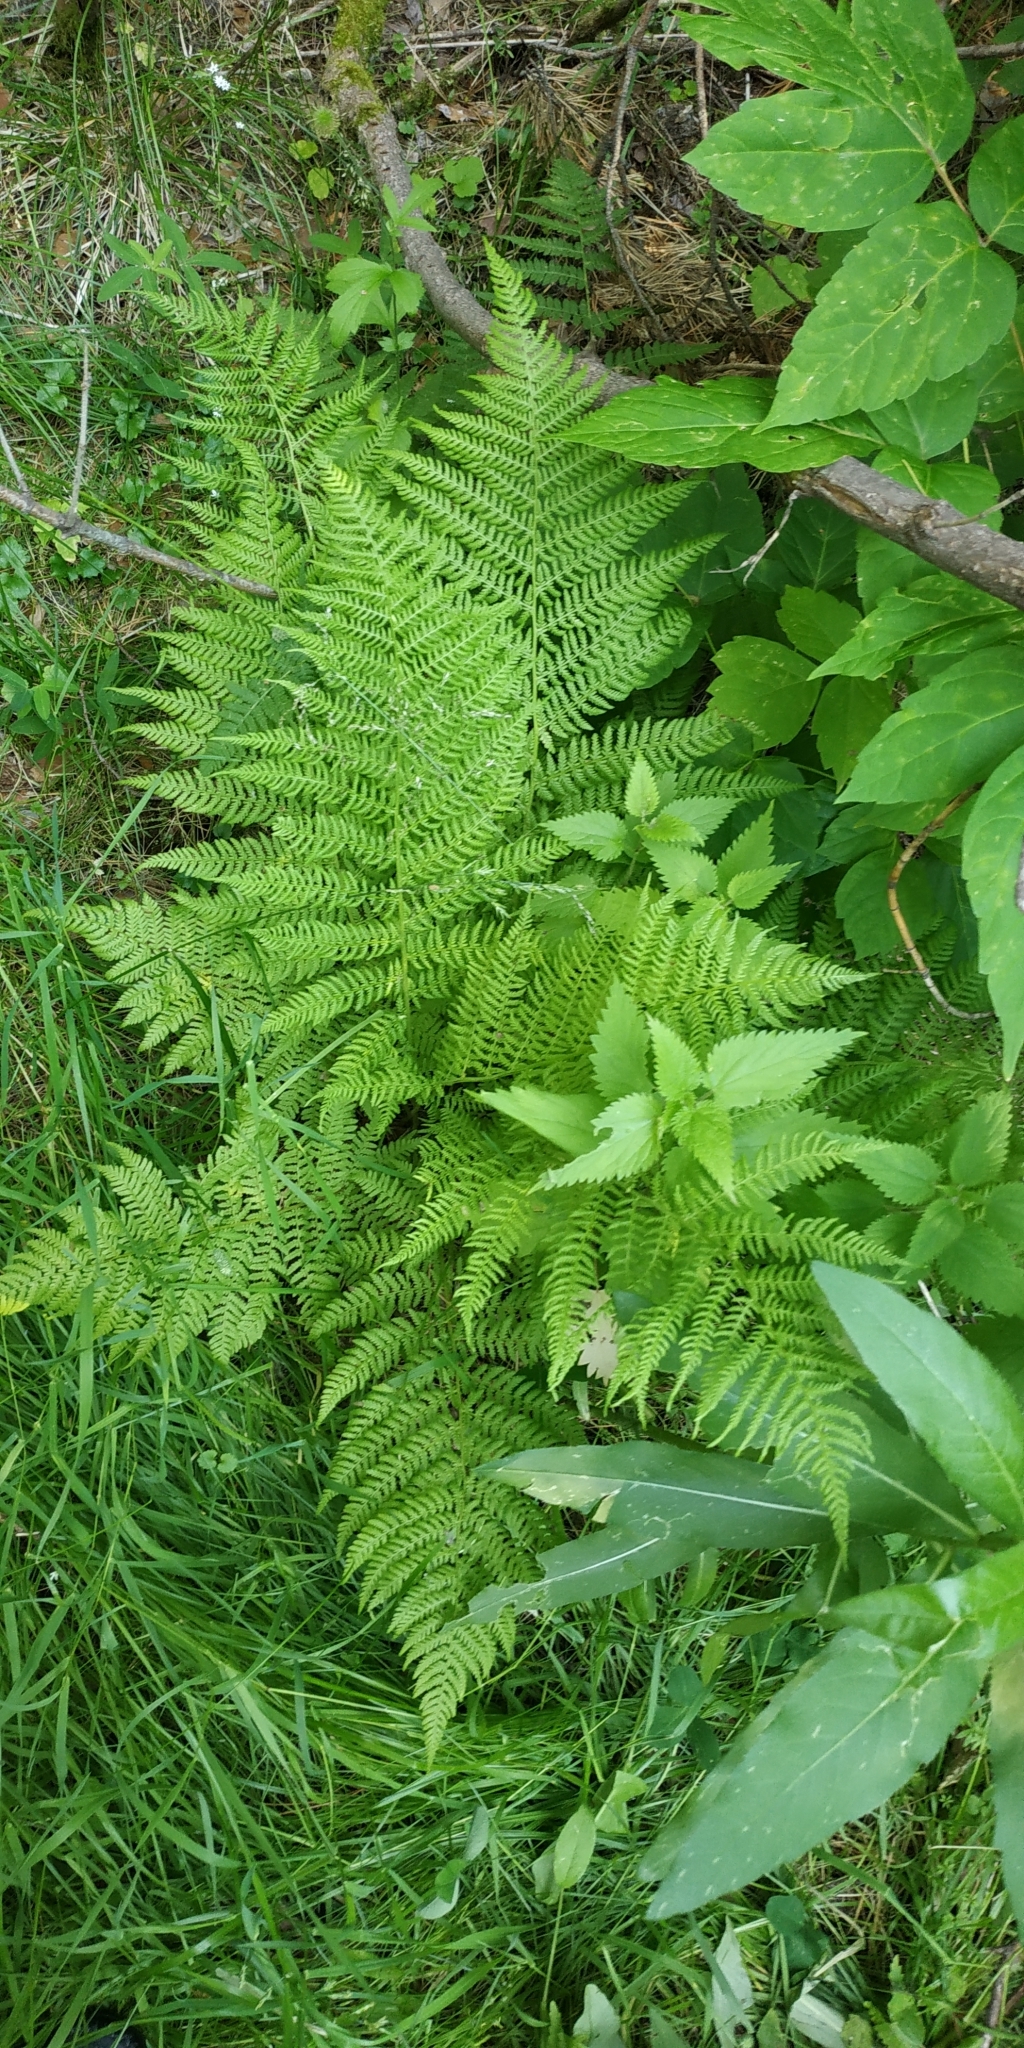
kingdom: Plantae
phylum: Tracheophyta
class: Polypodiopsida
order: Polypodiales
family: Athyriaceae
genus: Athyrium
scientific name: Athyrium filix-femina
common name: Lady fern
